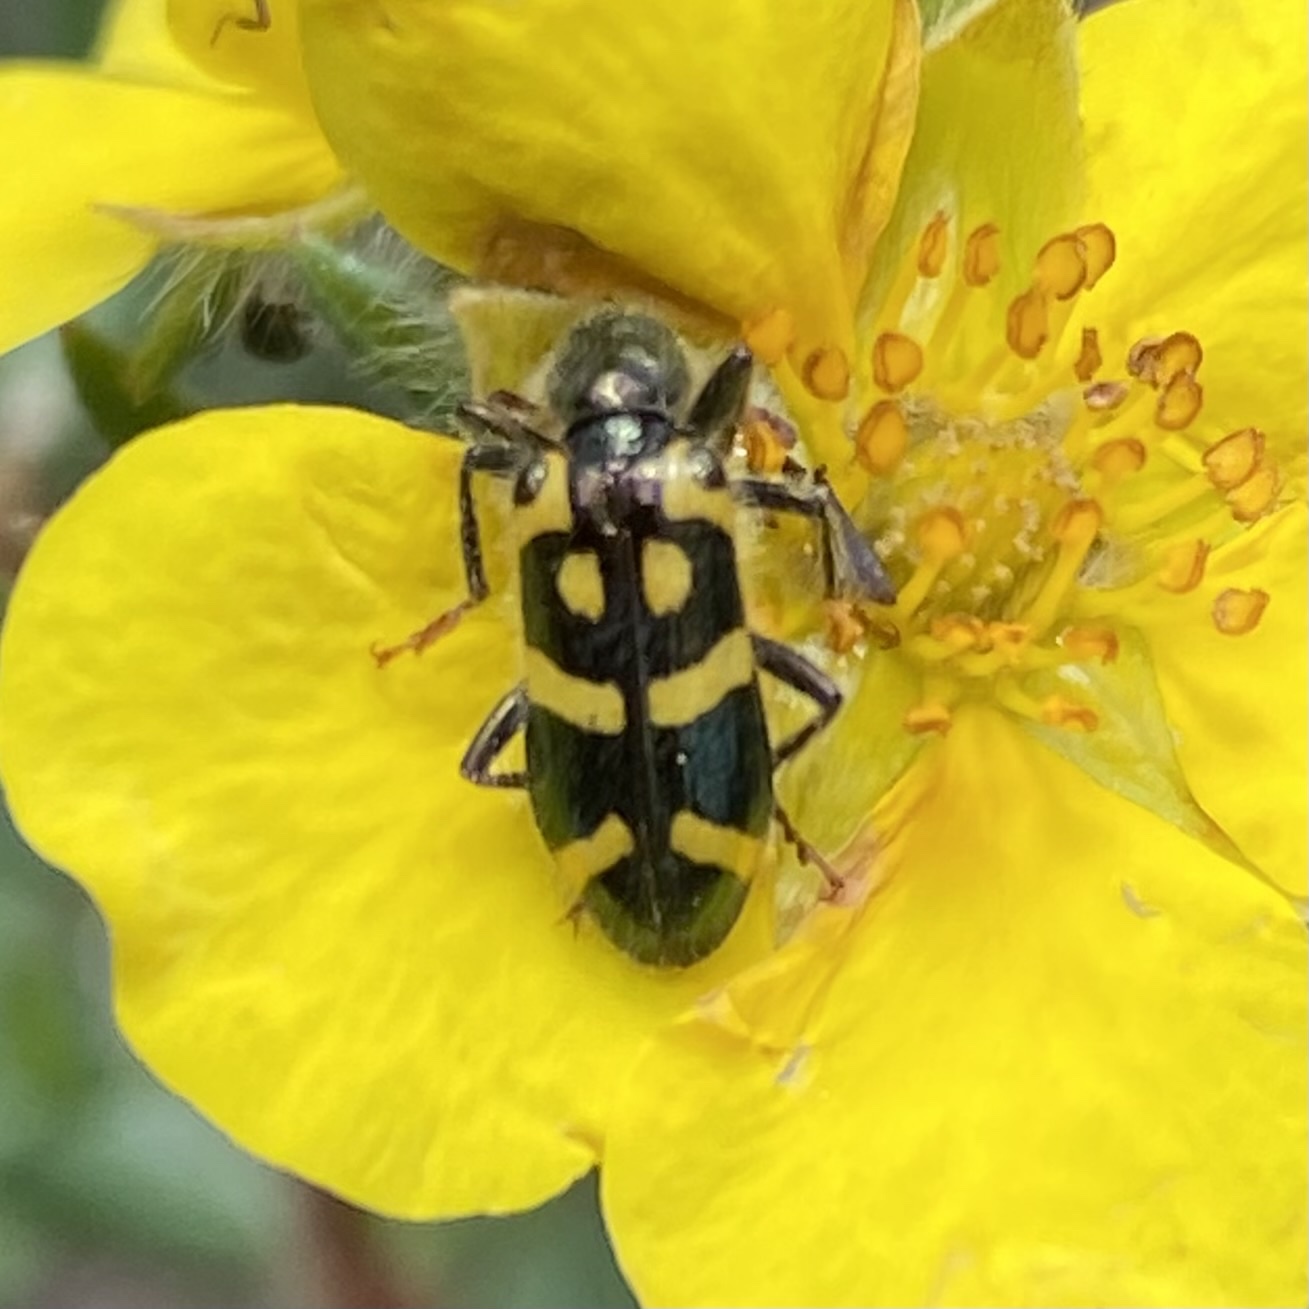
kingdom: Animalia
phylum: Arthropoda
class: Insecta
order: Coleoptera
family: Cleridae
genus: Trichodes
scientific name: Trichodes ornatus
